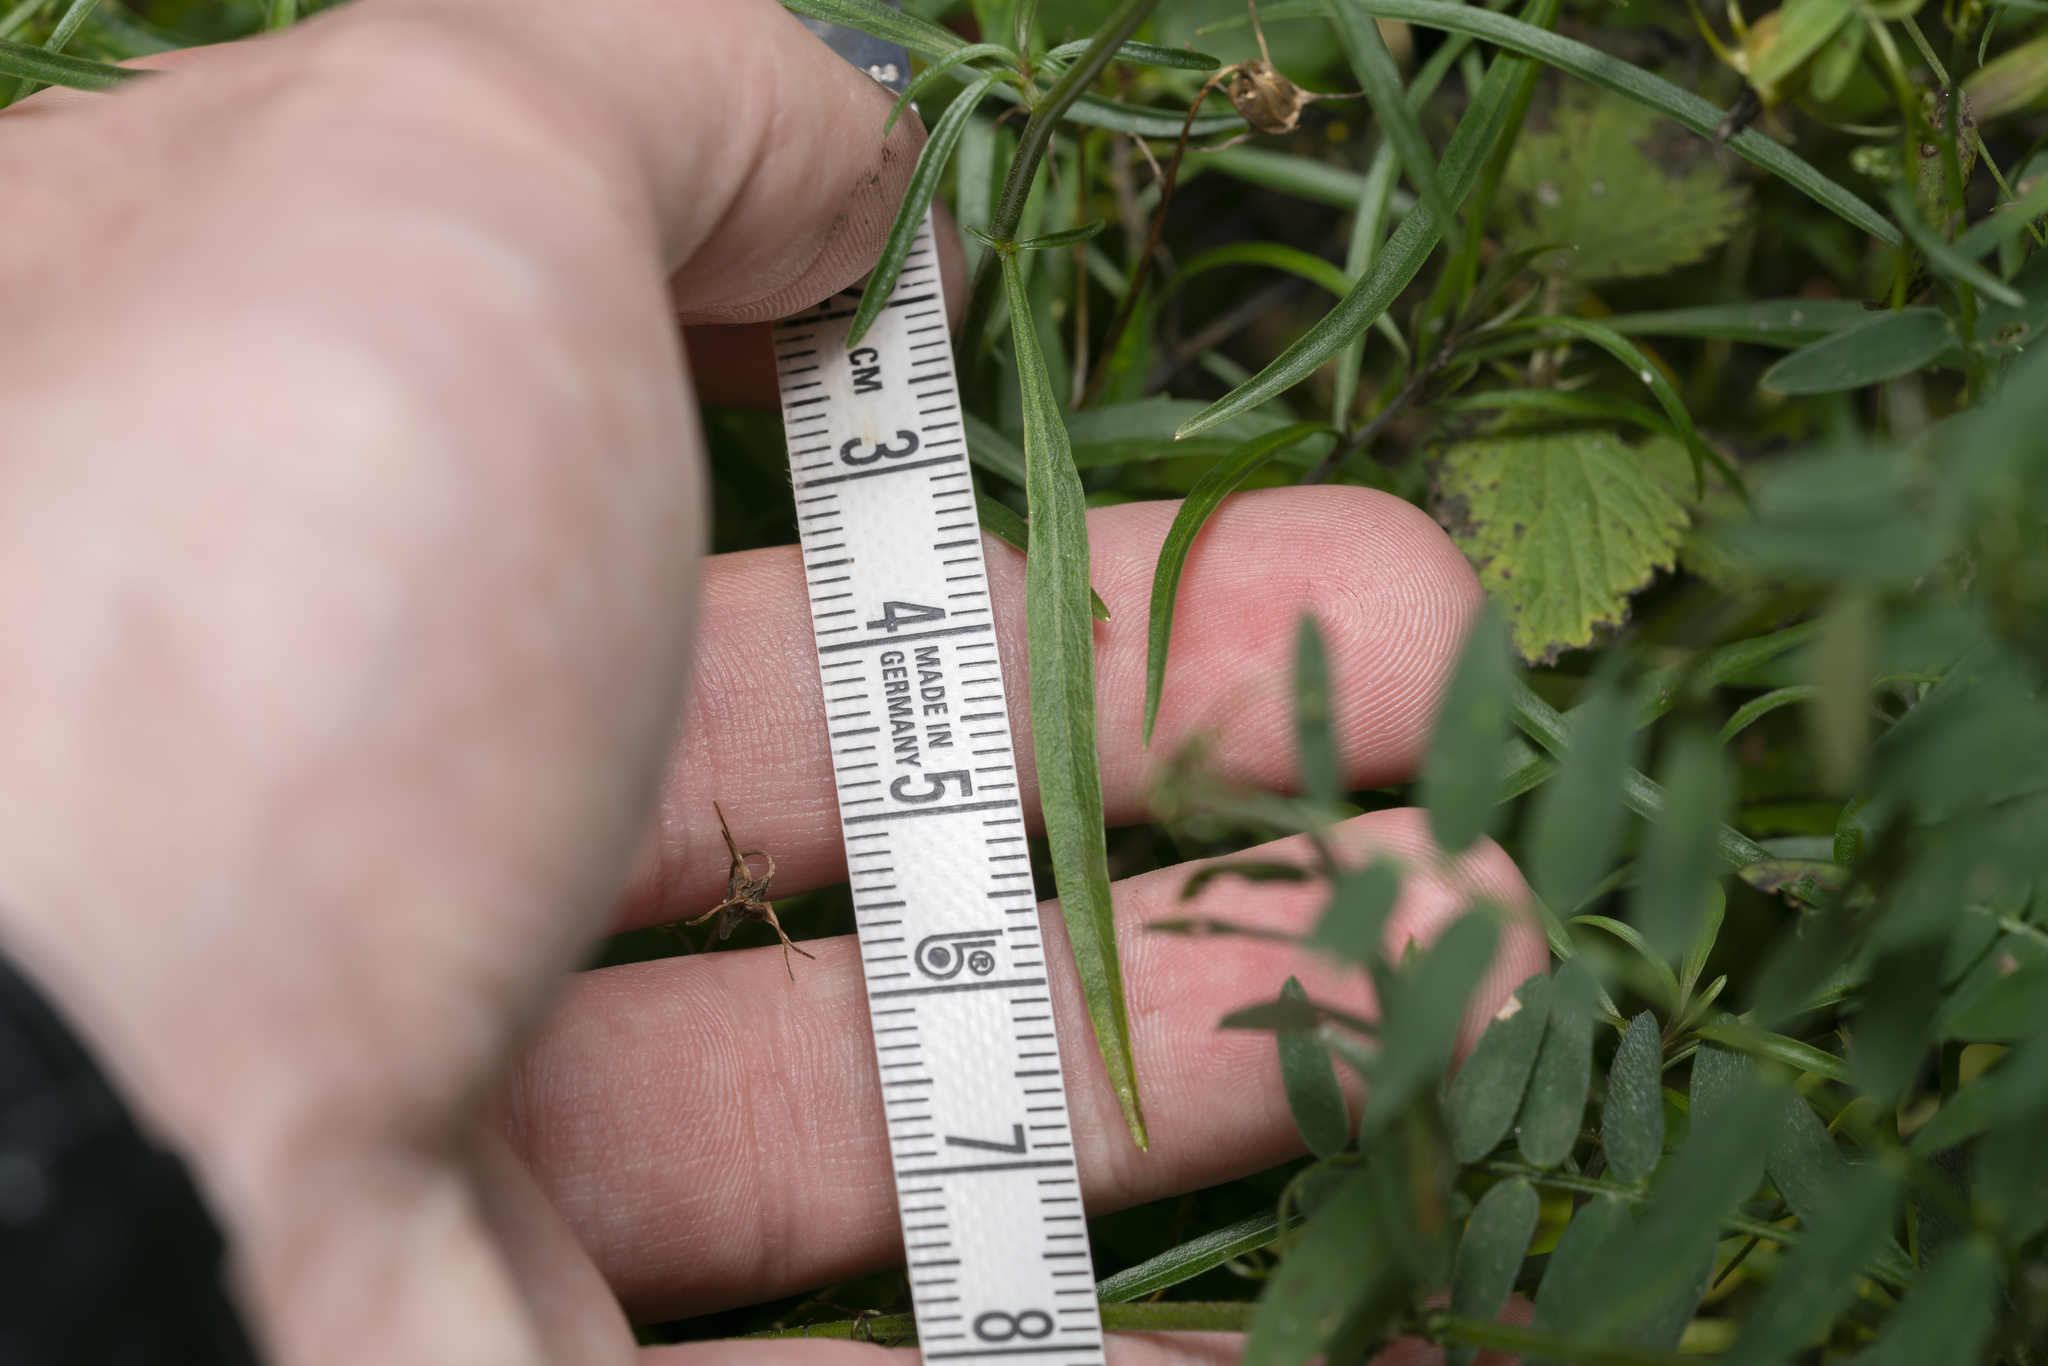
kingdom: Plantae
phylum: Tracheophyta
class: Magnoliopsida
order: Asterales
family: Campanulaceae
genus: Campanula
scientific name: Campanula rotundifolia
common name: Harebell
